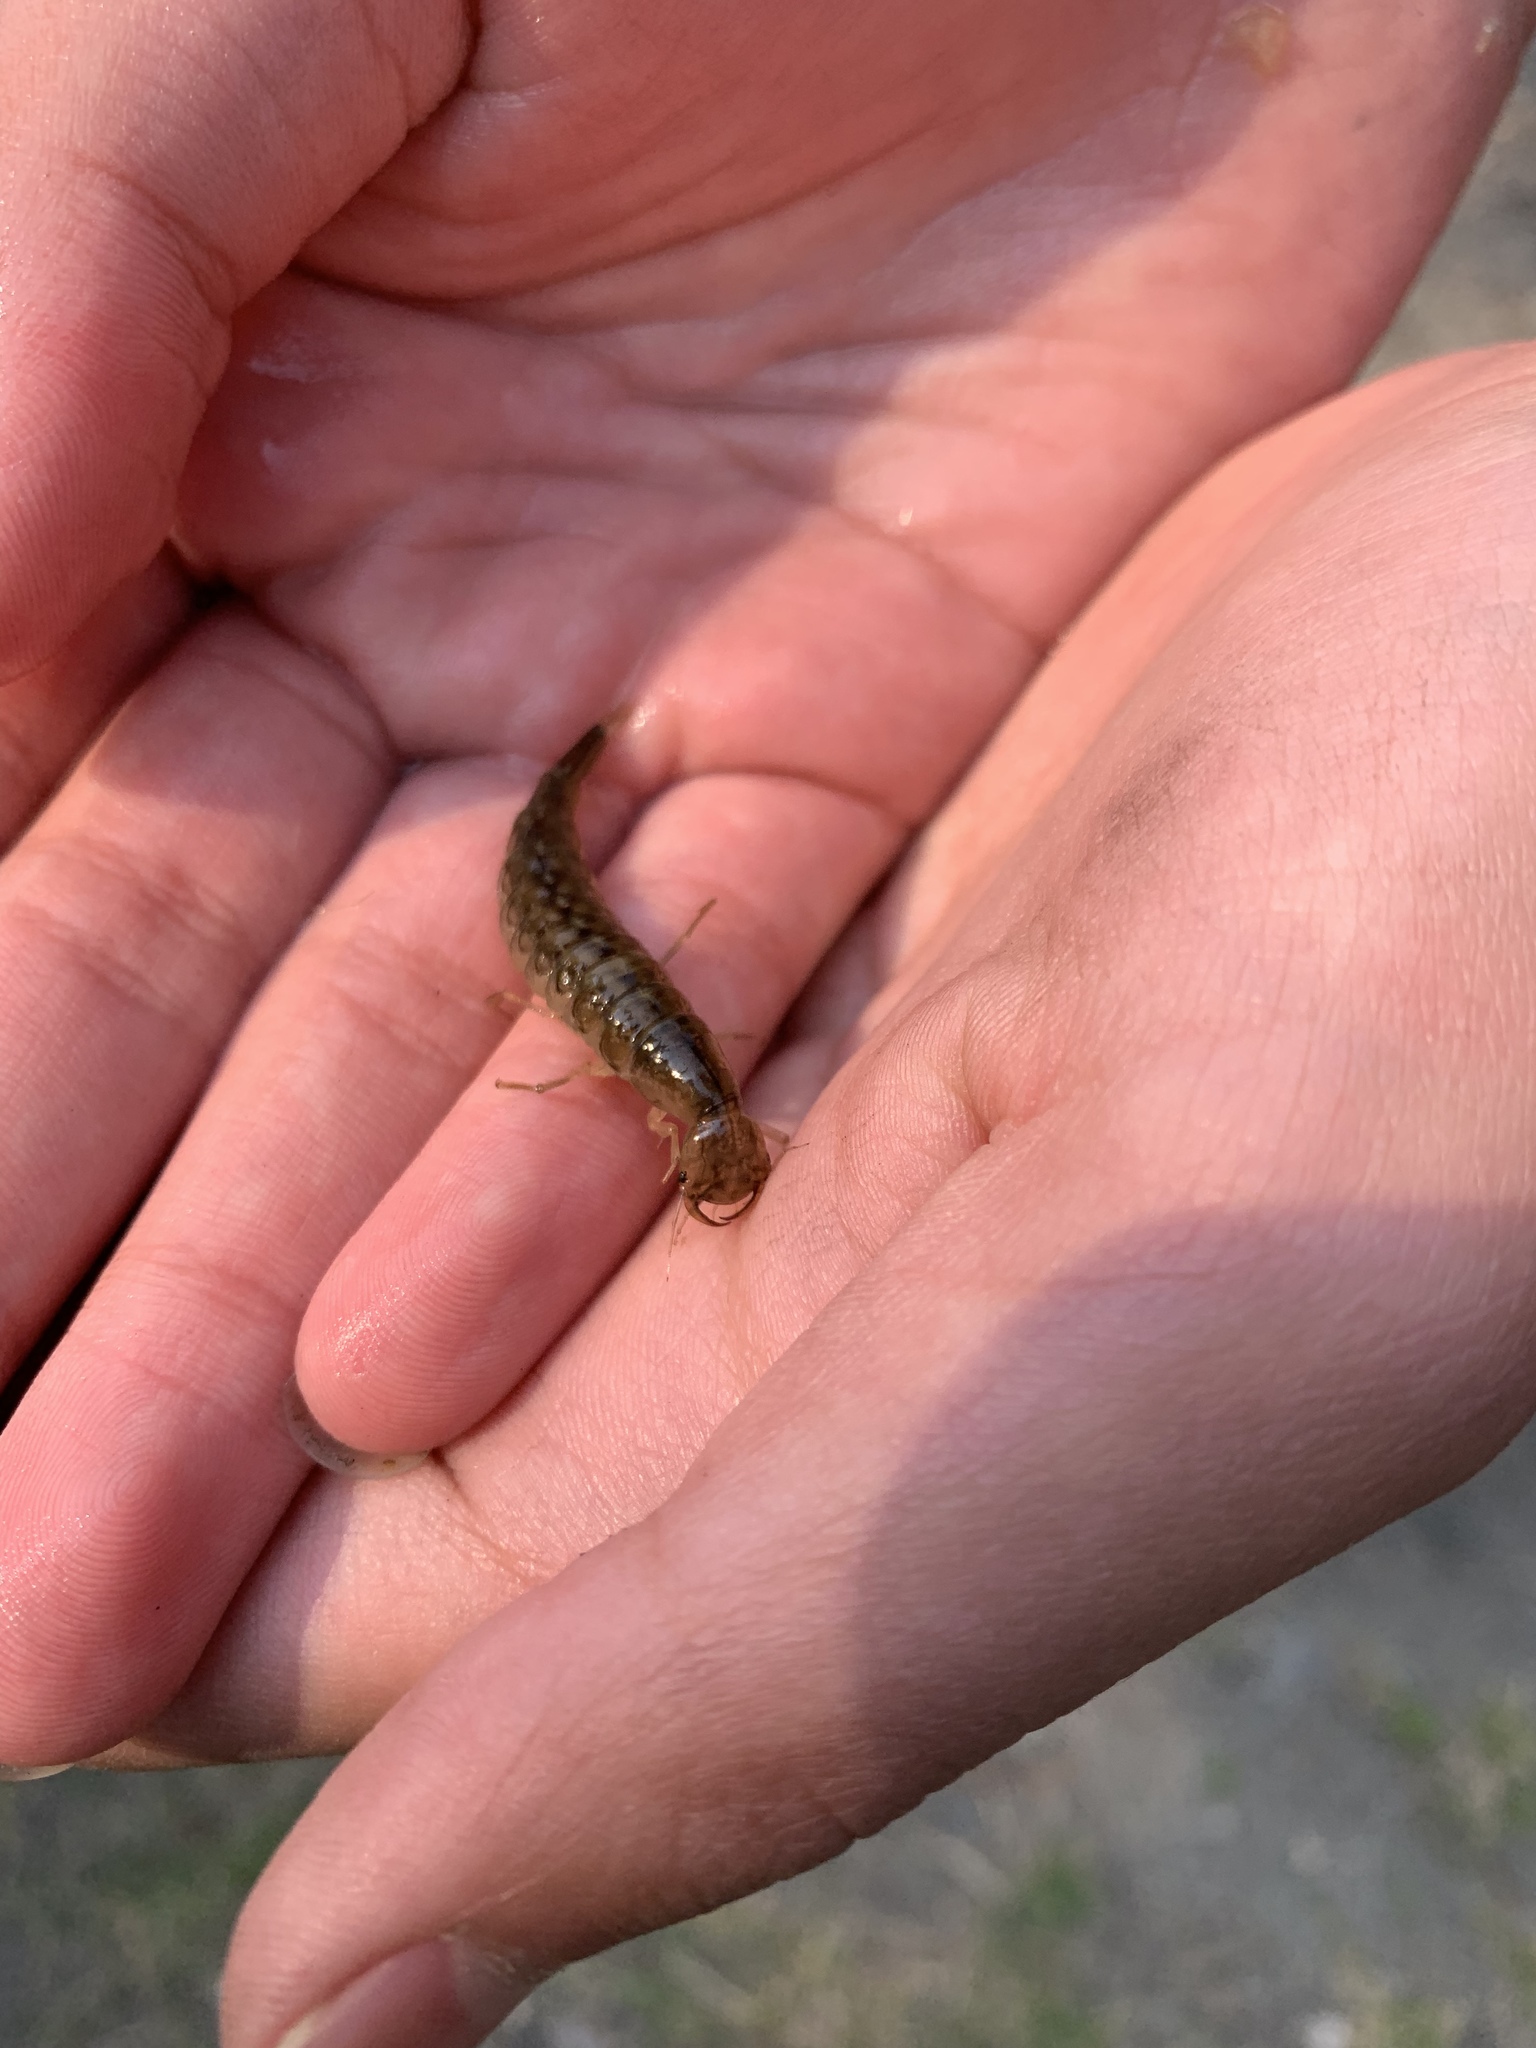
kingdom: Animalia
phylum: Arthropoda
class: Insecta
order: Coleoptera
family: Dytiscidae
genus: Dytiscus
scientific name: Dytiscus
